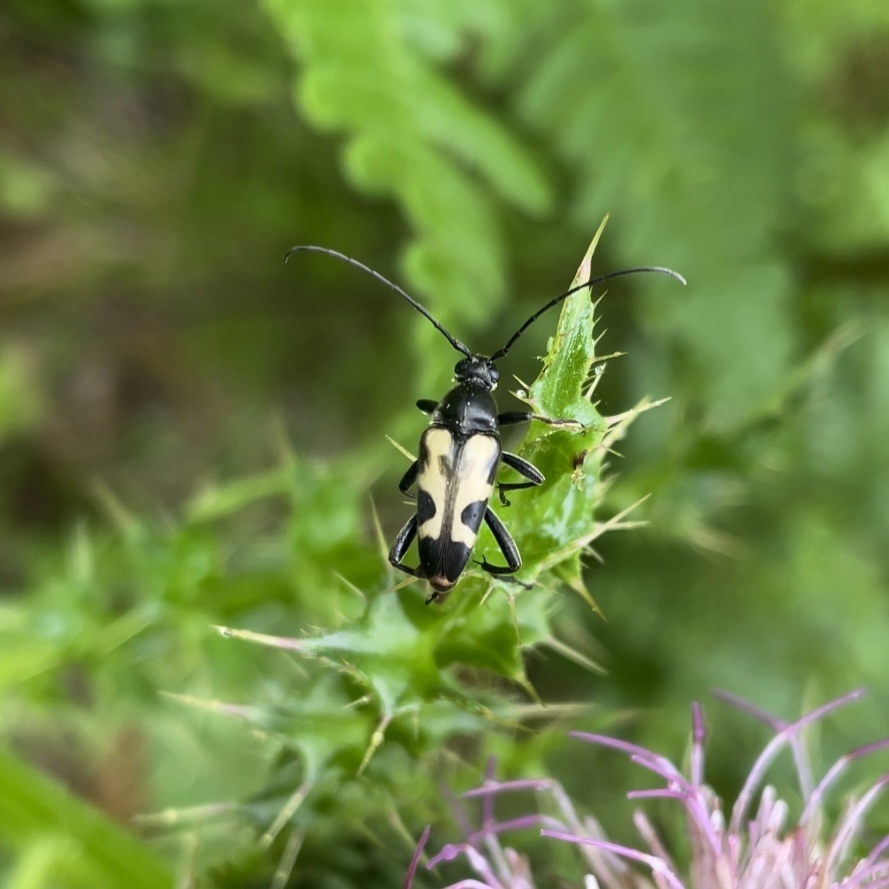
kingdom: Animalia
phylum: Arthropoda
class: Insecta
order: Coleoptera
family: Cerambycidae
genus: Judolia
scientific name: Judolia cordifera
